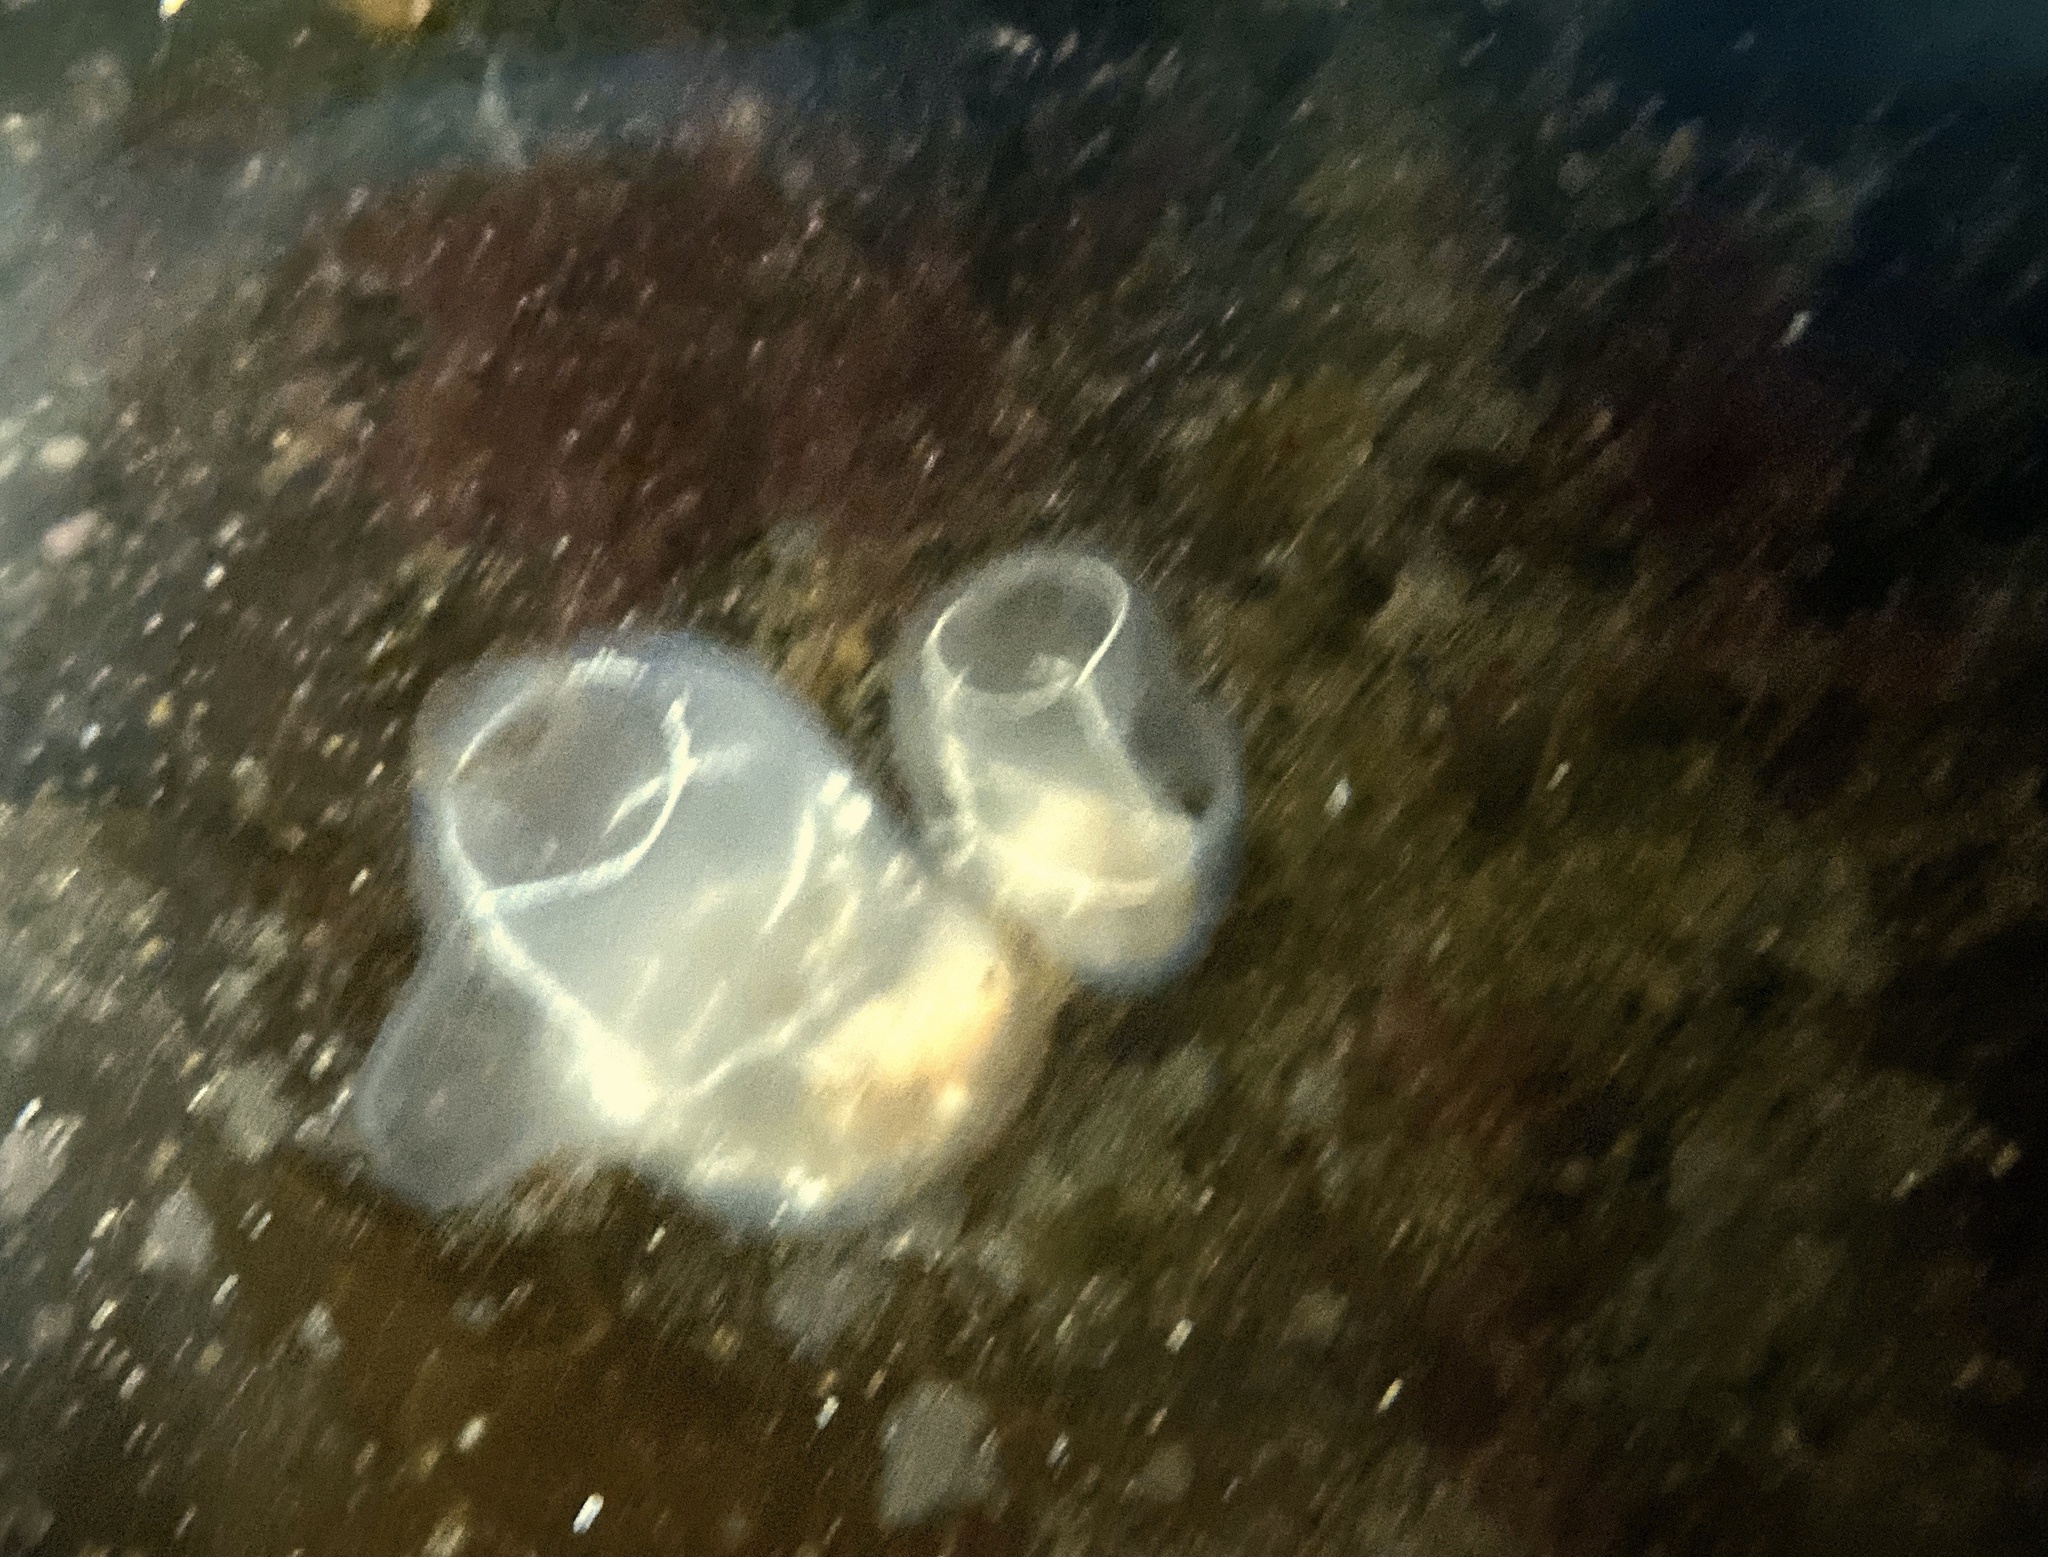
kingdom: Animalia
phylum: Chordata
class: Ascidiacea
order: Phlebobranchia
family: Corellidae
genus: Corella
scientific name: Corella parallelogramma
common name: Gas mantle ascidian
